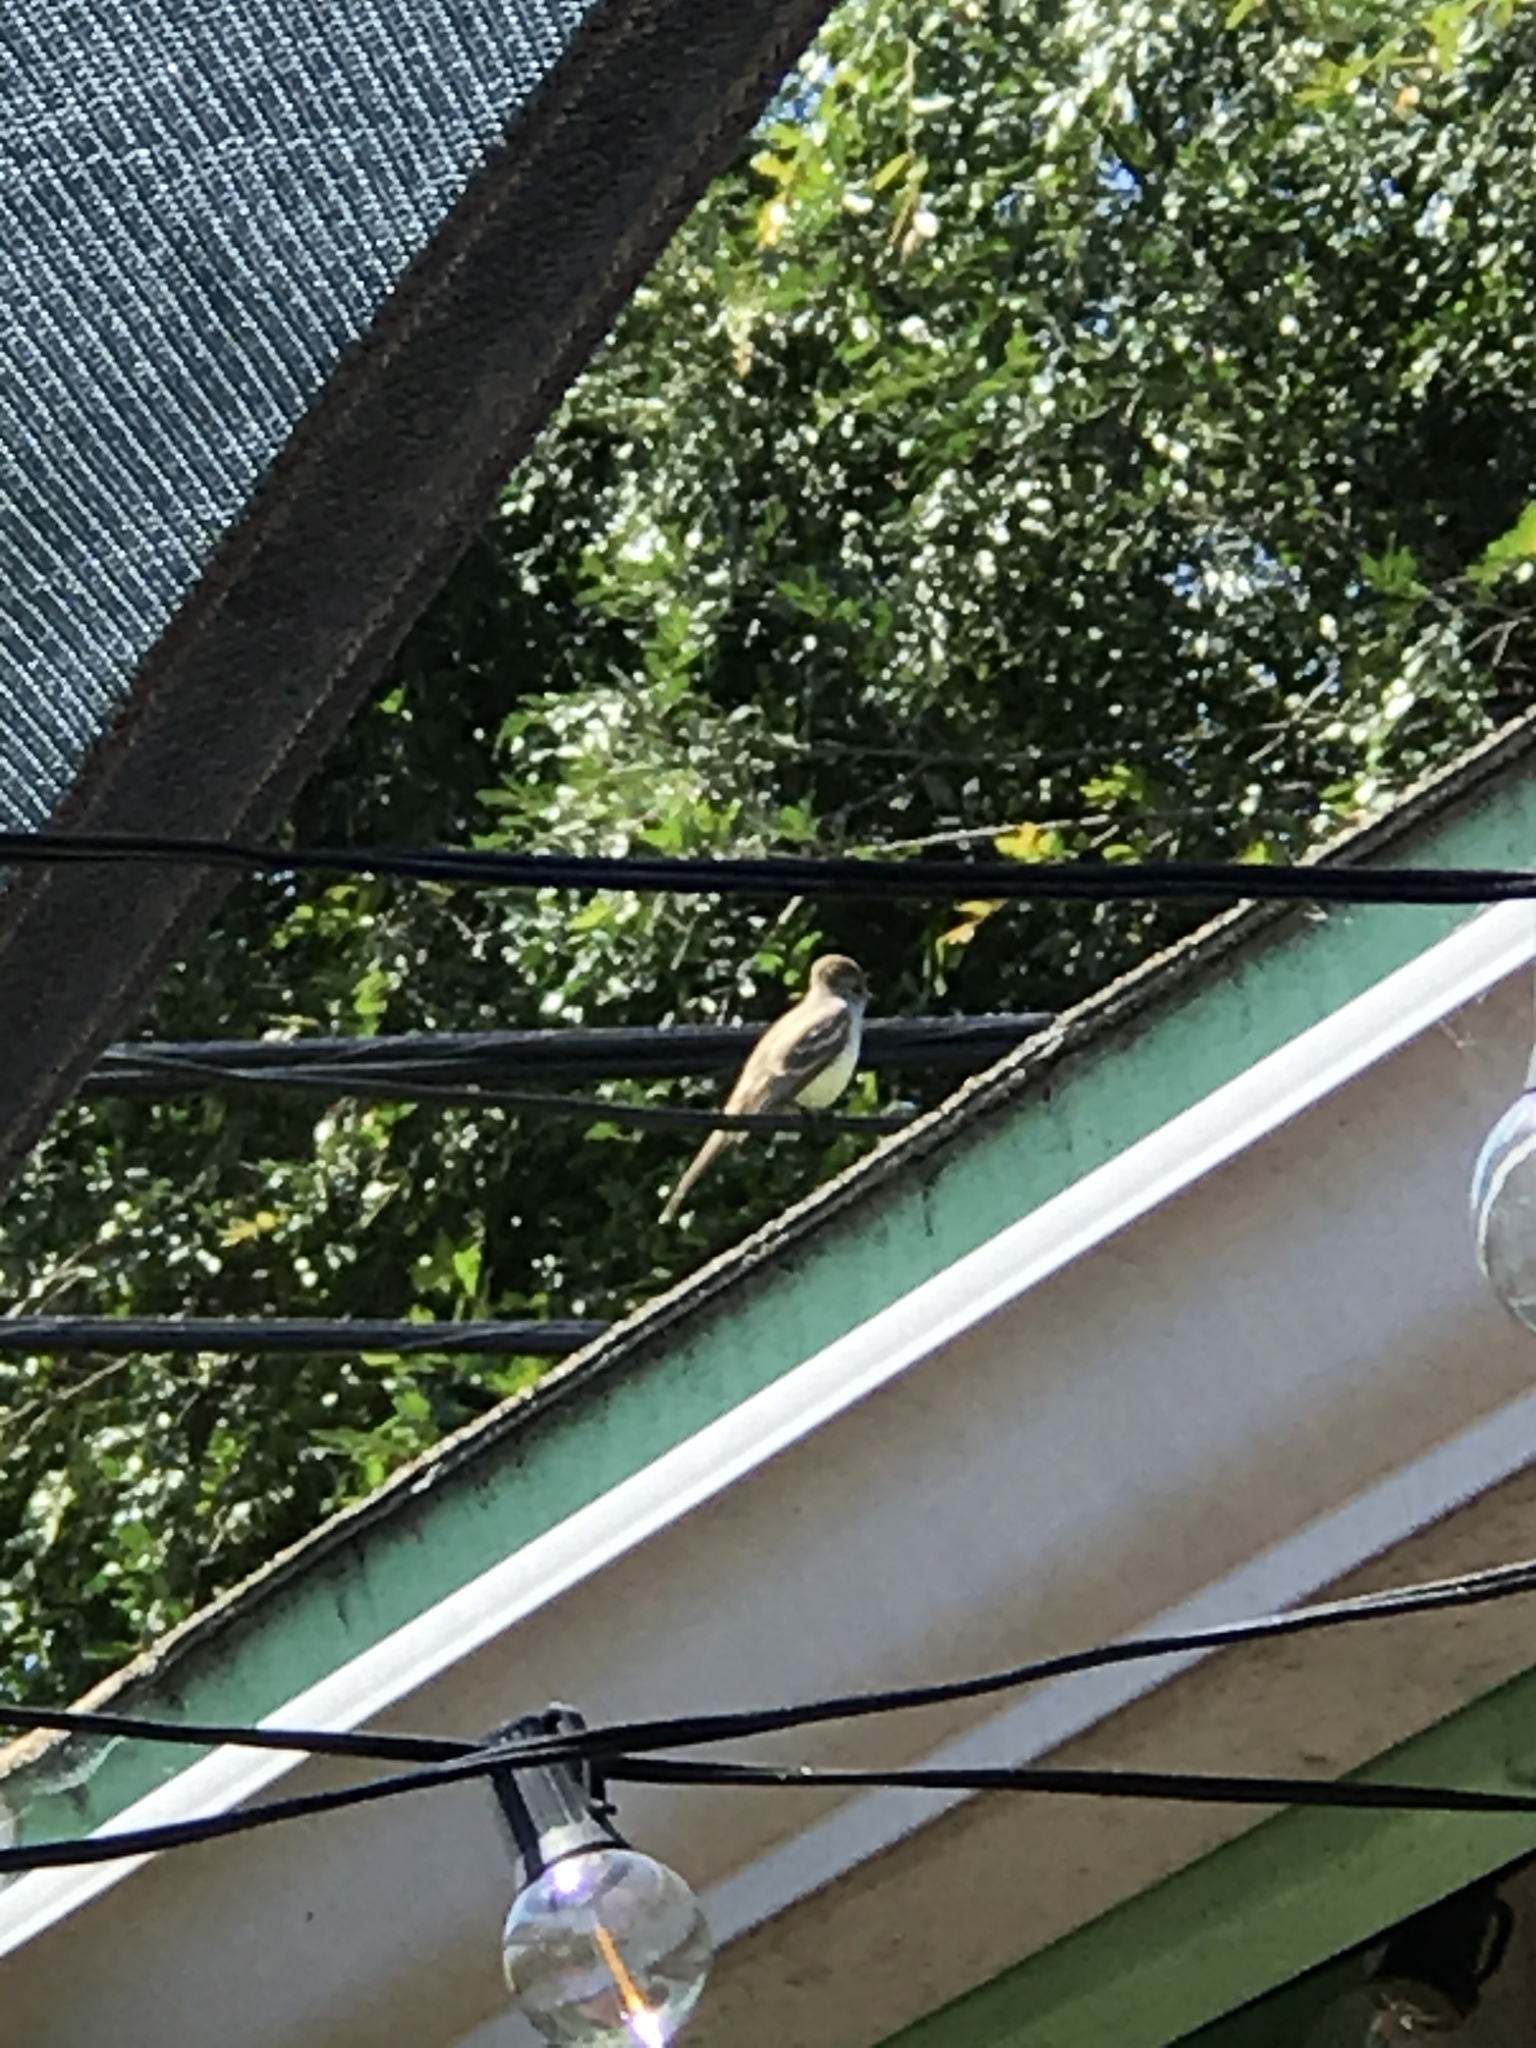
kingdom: Animalia
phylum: Chordata
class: Aves
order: Passeriformes
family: Tyrannidae
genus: Myiarchus
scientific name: Myiarchus cinerascens
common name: Ash-throated flycatcher
